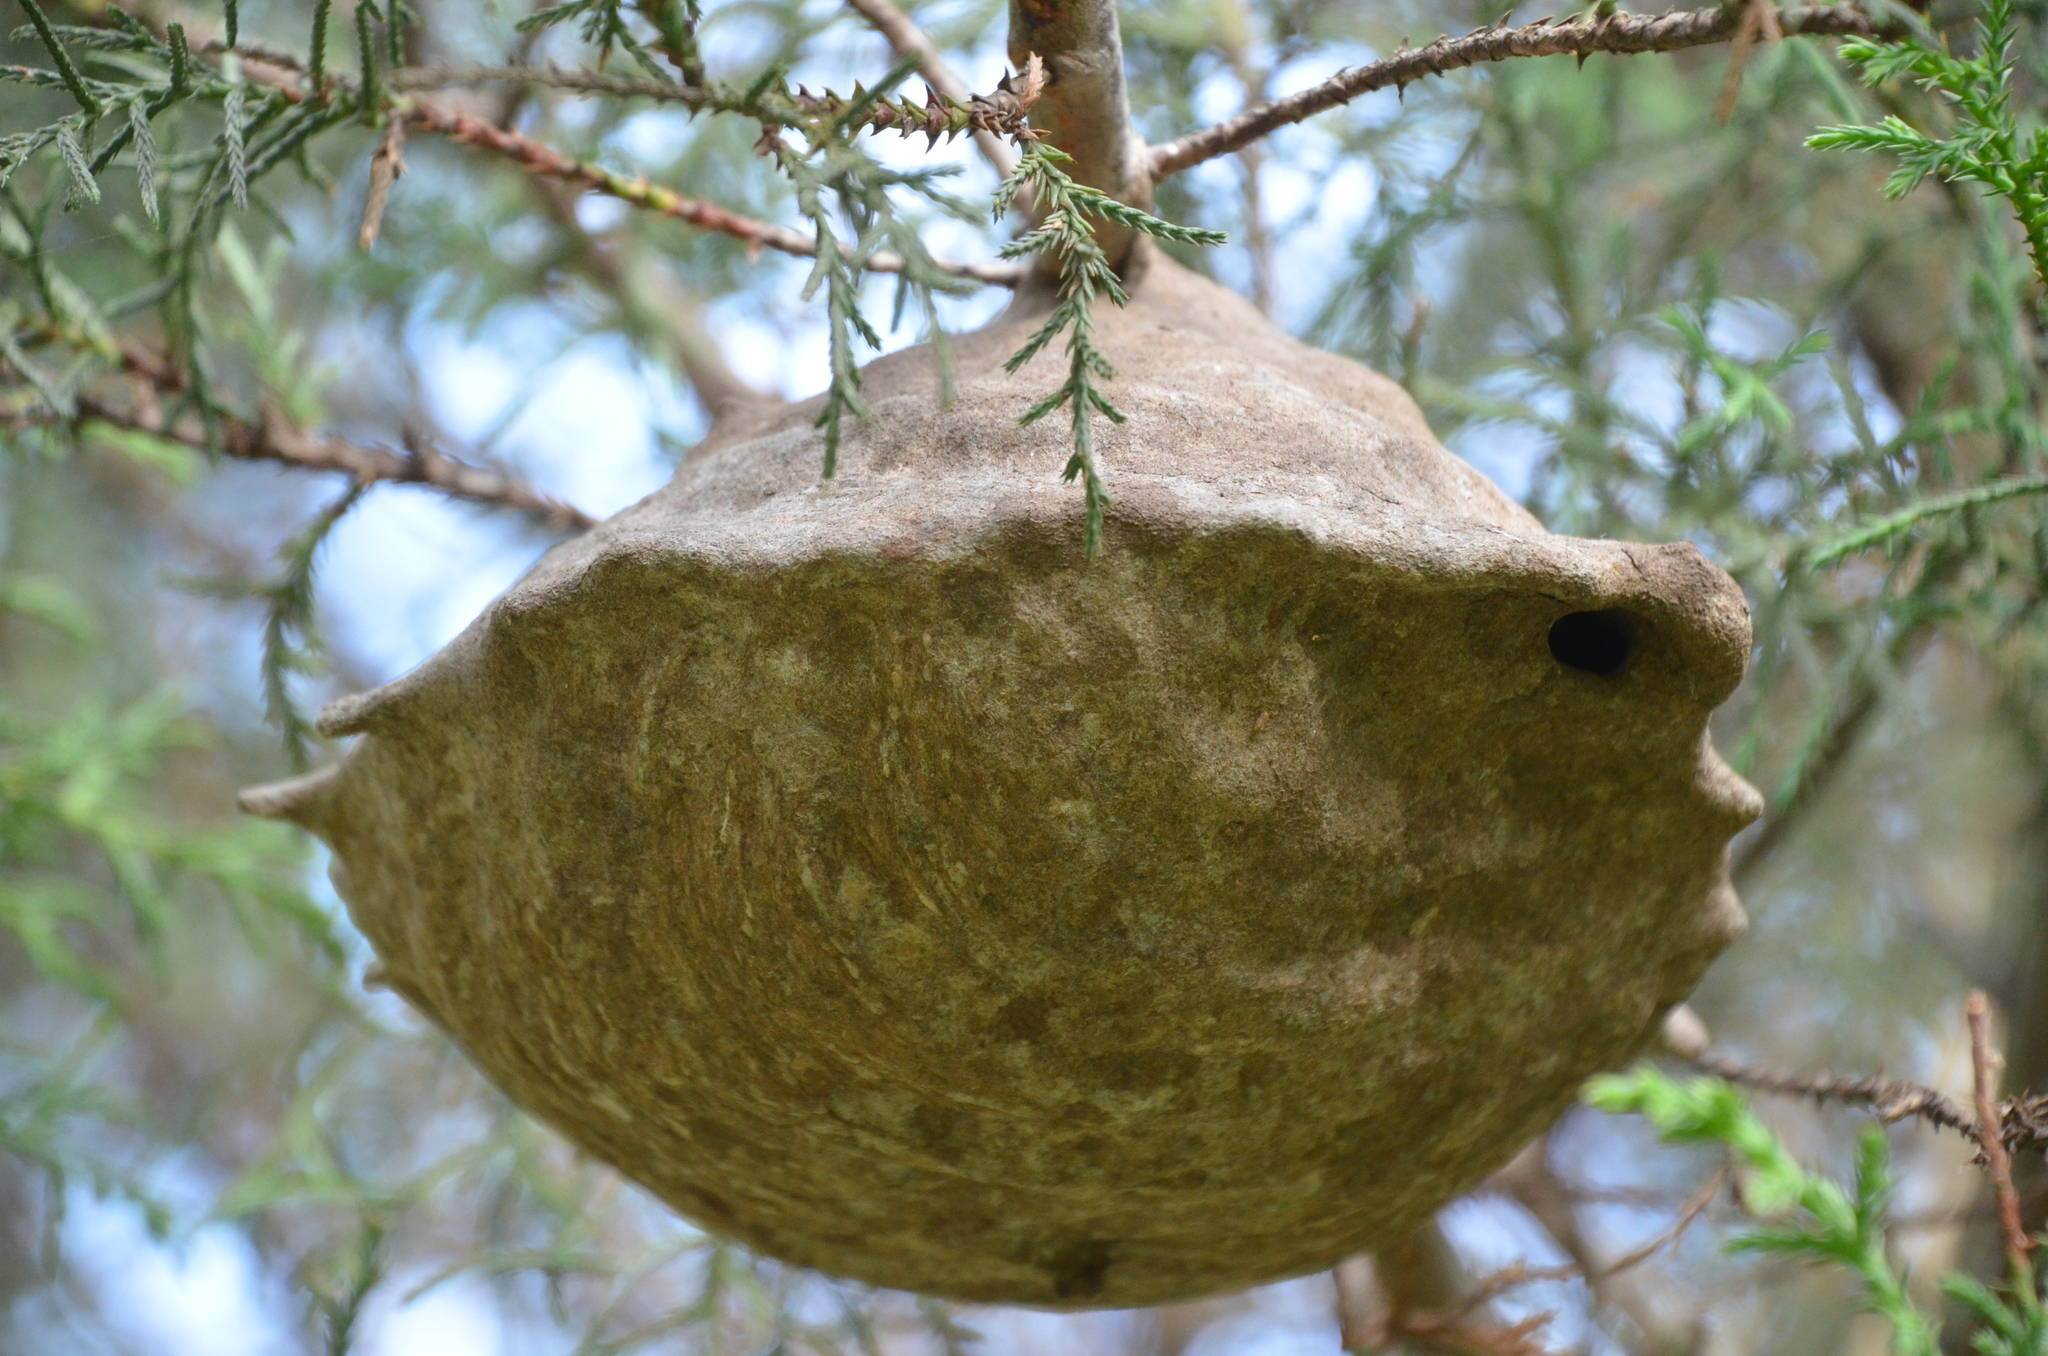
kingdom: Animalia
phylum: Arthropoda
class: Insecta
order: Hymenoptera
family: Eumenidae
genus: Polybia
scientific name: Polybia scutellaris
